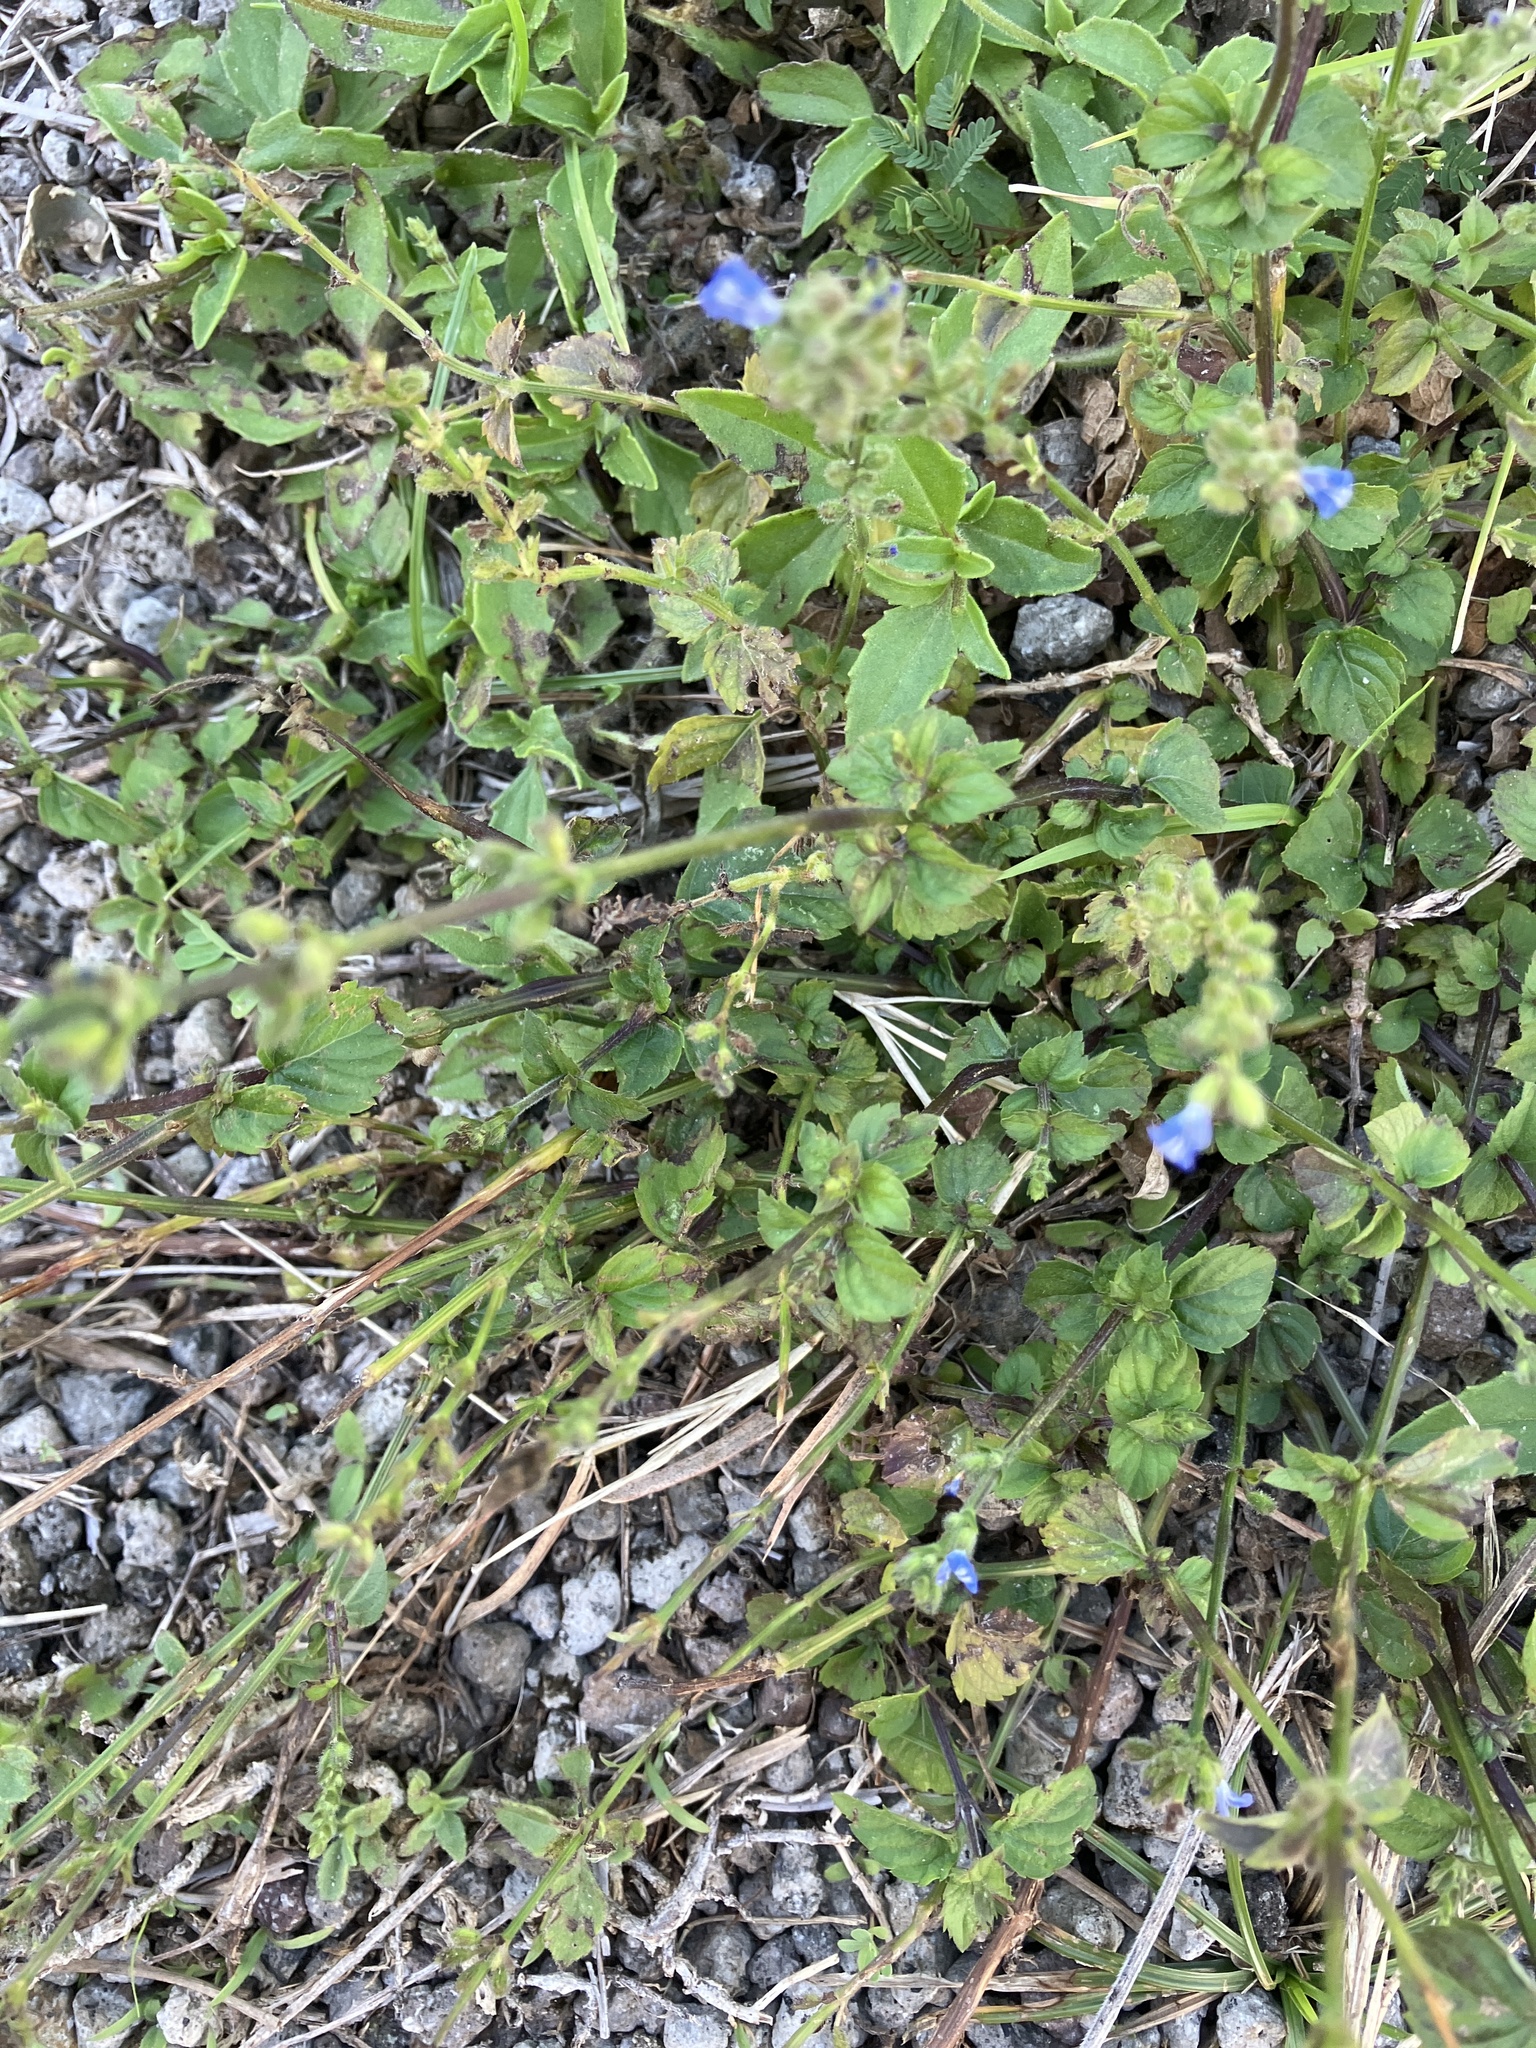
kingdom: Plantae
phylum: Tracheophyta
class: Magnoliopsida
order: Lamiales
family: Lamiaceae
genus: Salvia
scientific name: Salvia occidentalis
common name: West indian sage
